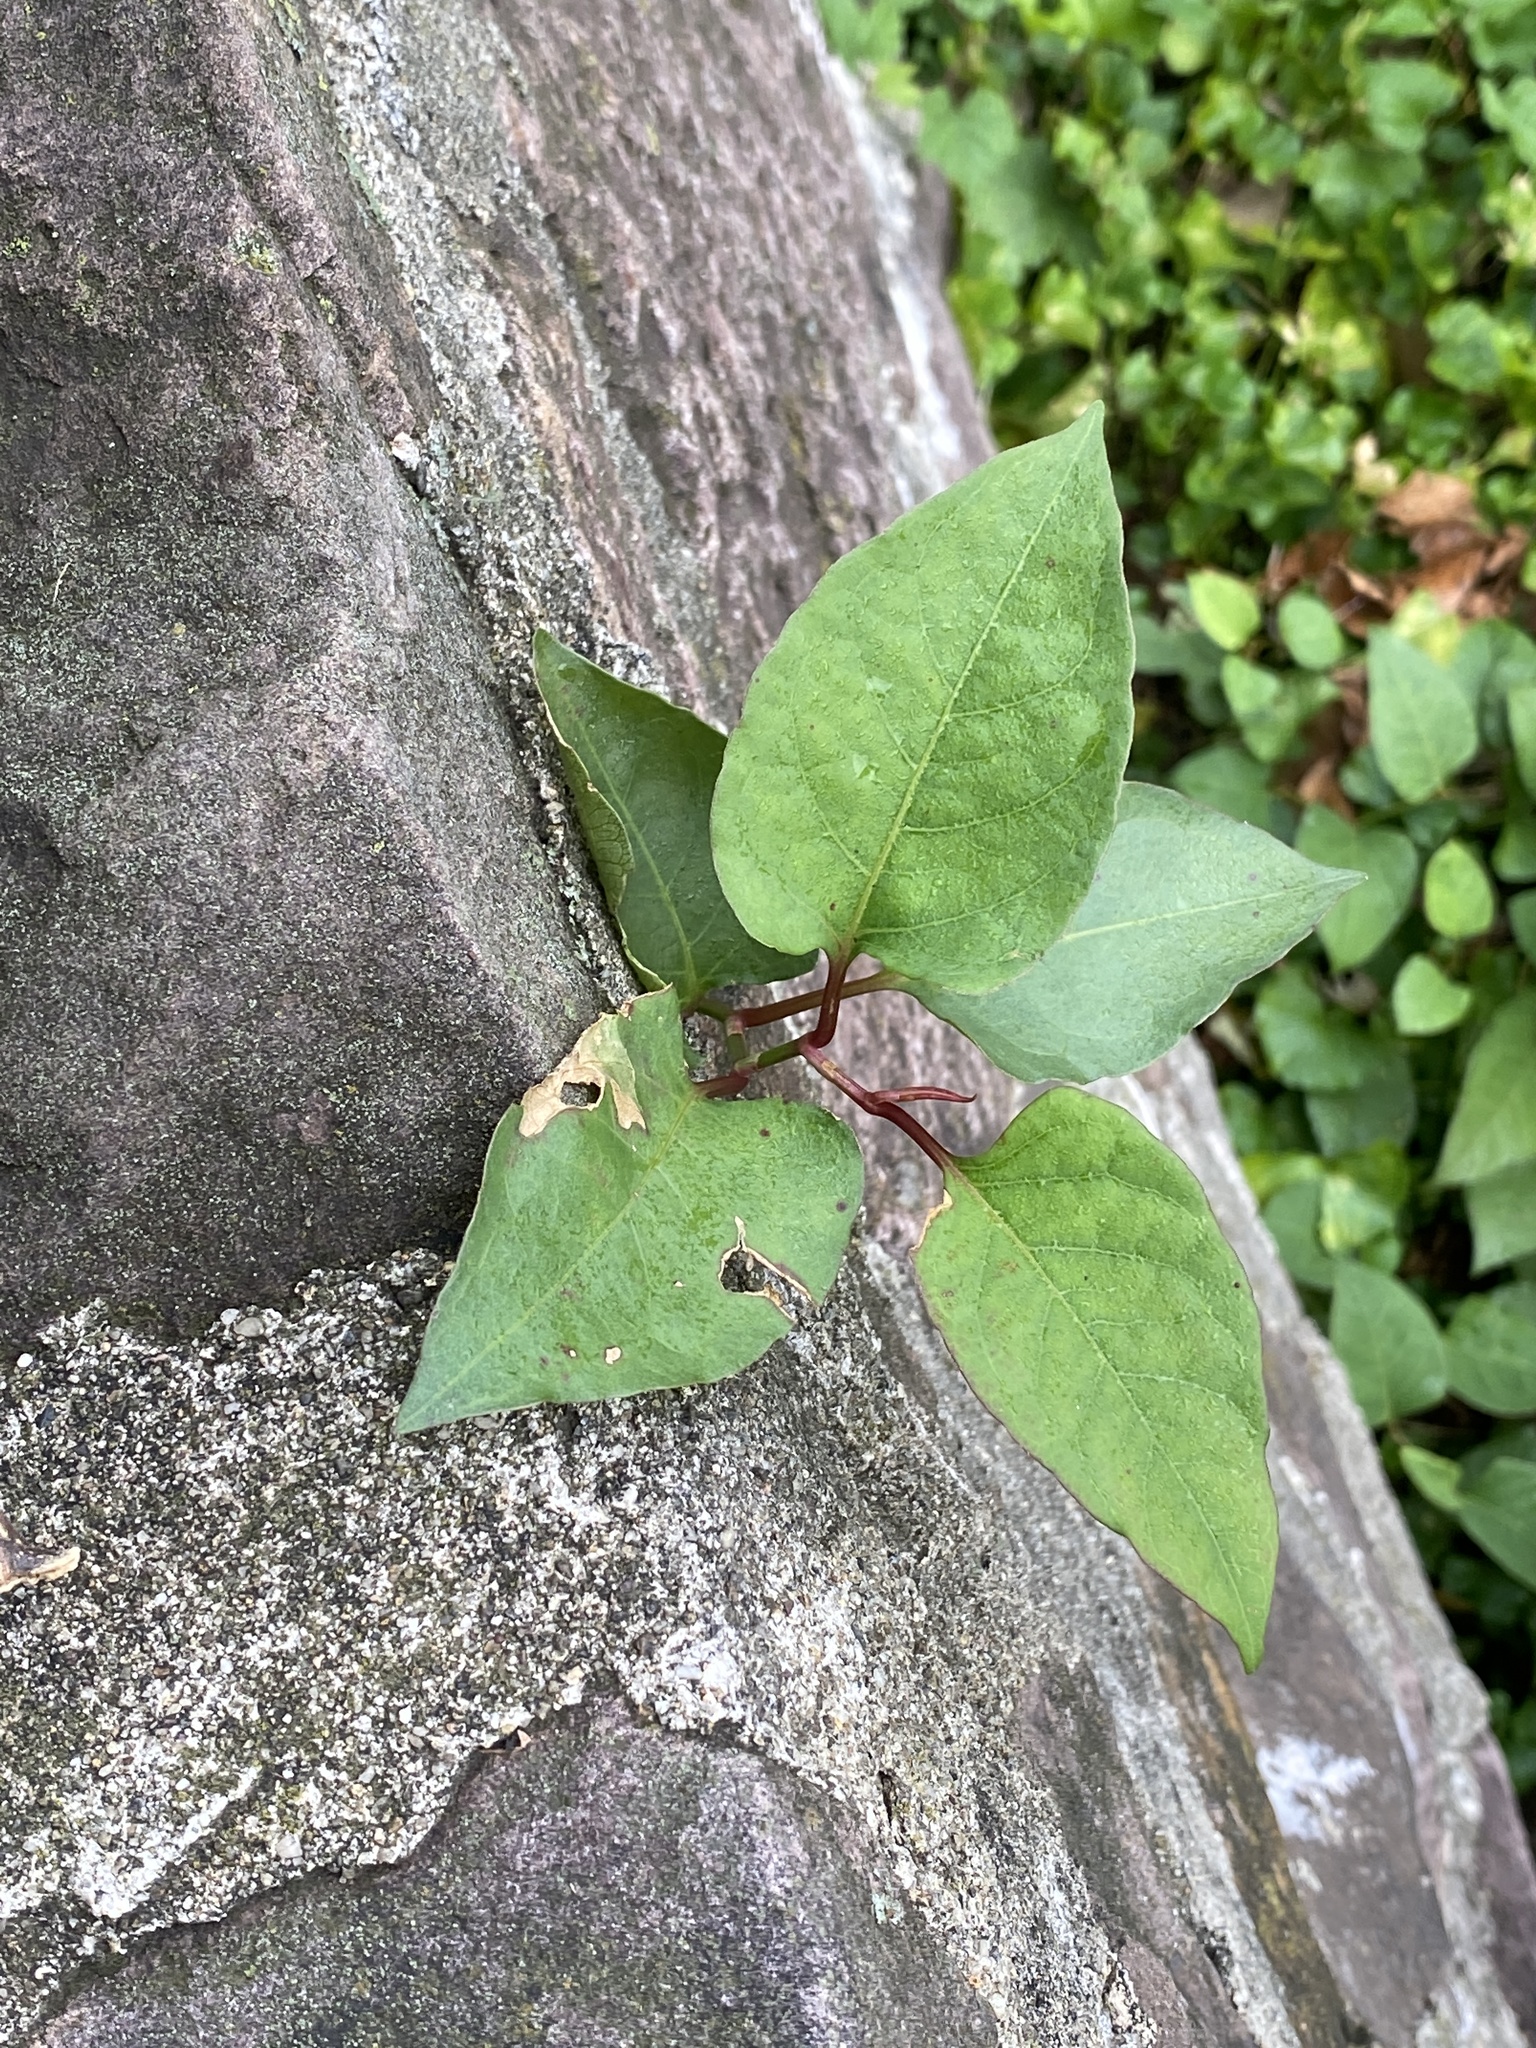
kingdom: Plantae
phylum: Tracheophyta
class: Magnoliopsida
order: Caryophyllales
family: Polygonaceae
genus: Reynoutria
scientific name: Reynoutria japonica
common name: Japanese knotweed
